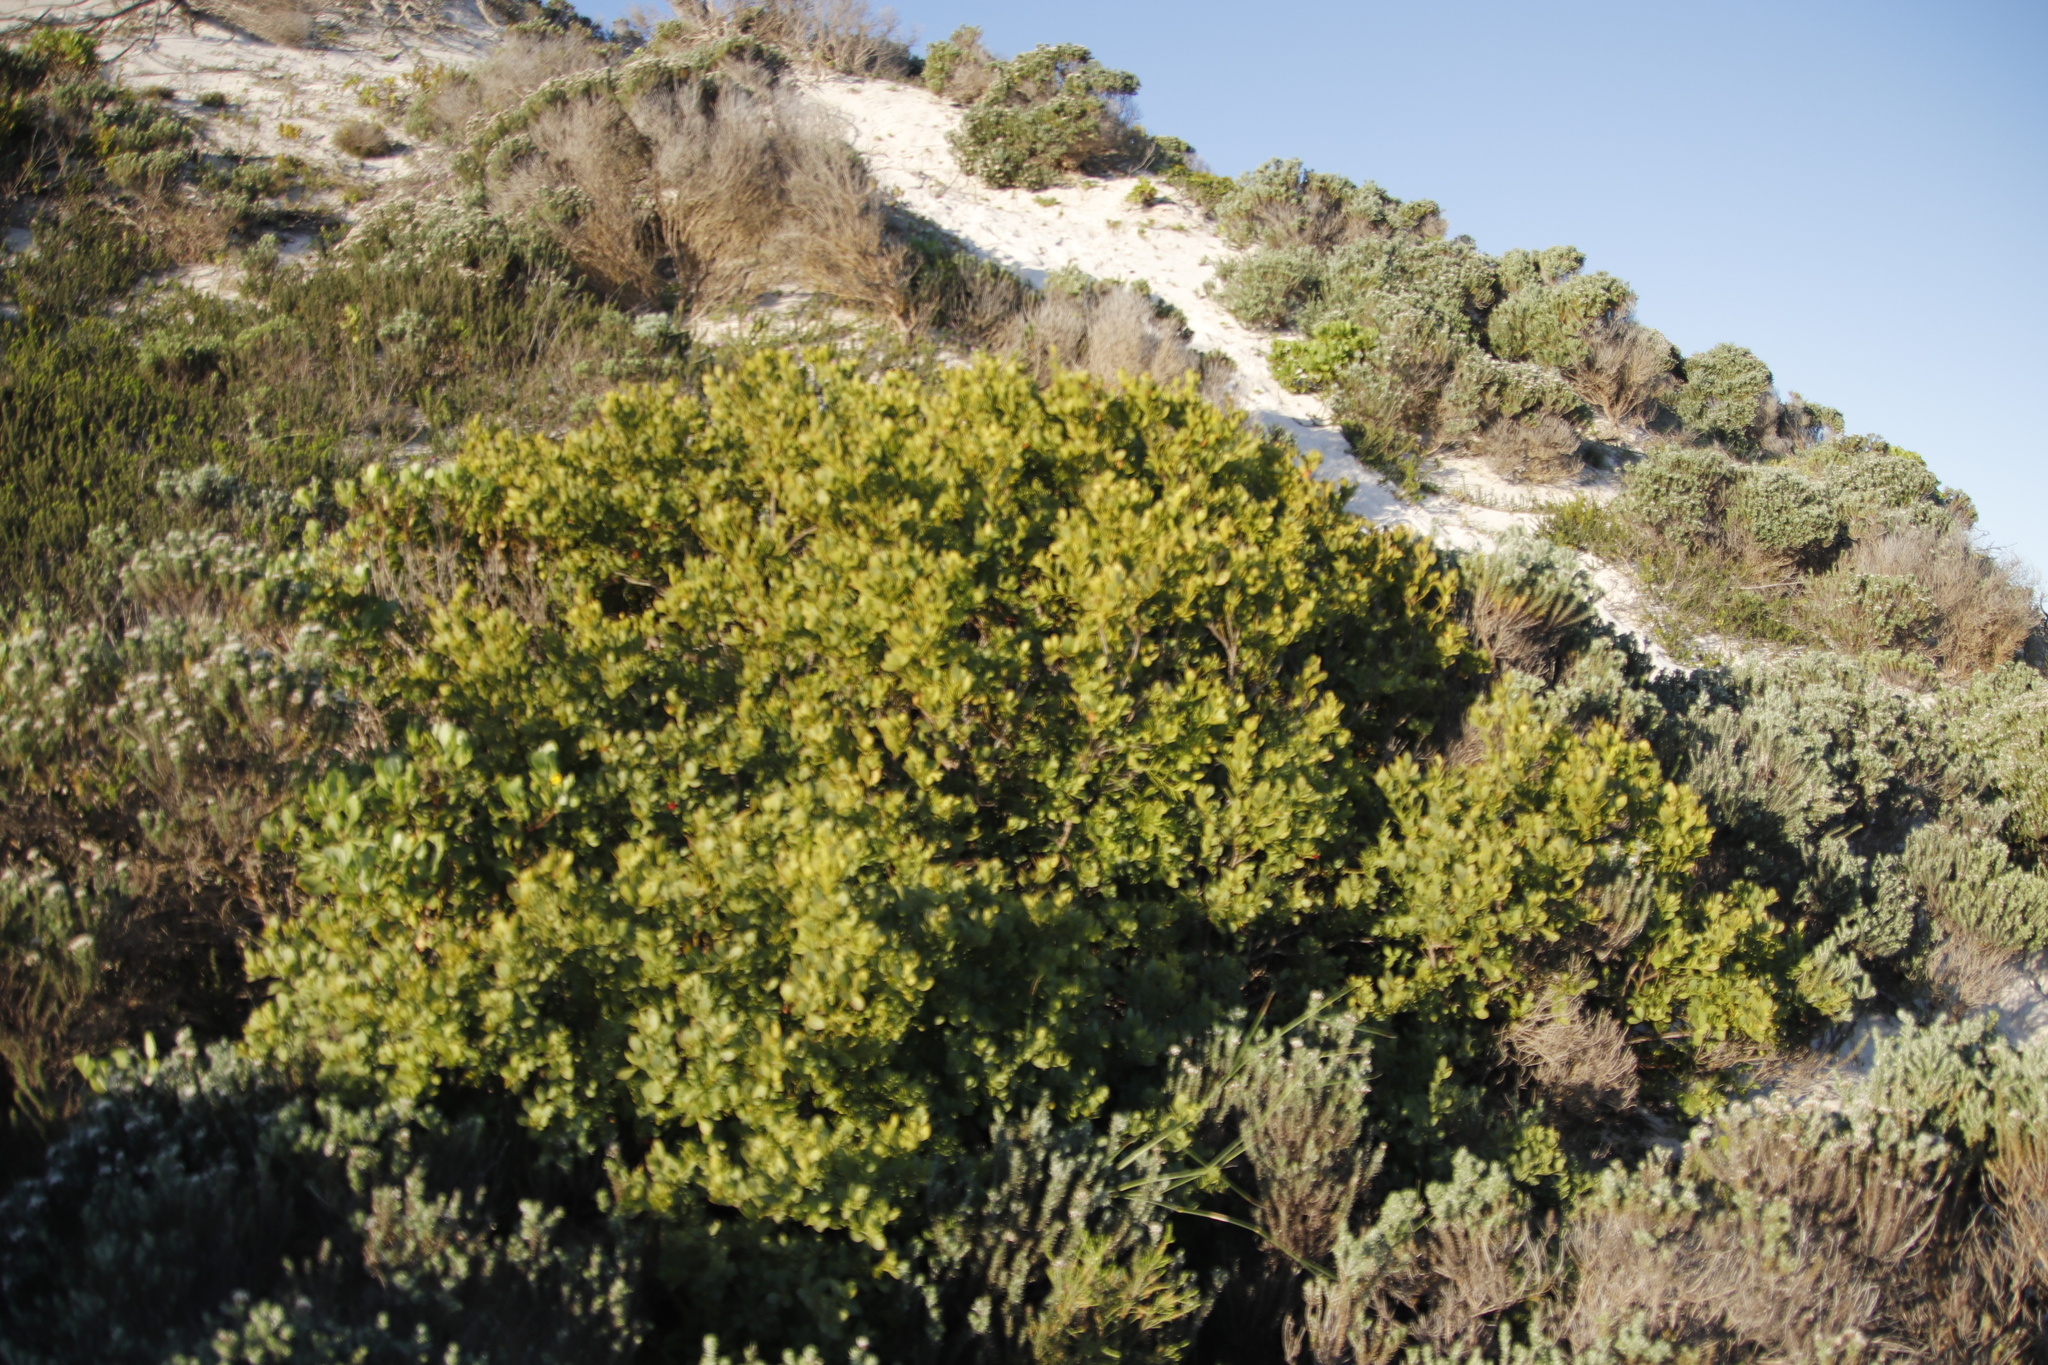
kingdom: Plantae
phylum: Tracheophyta
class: Magnoliopsida
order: Santalales
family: Santalaceae
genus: Osyris
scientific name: Osyris compressa
